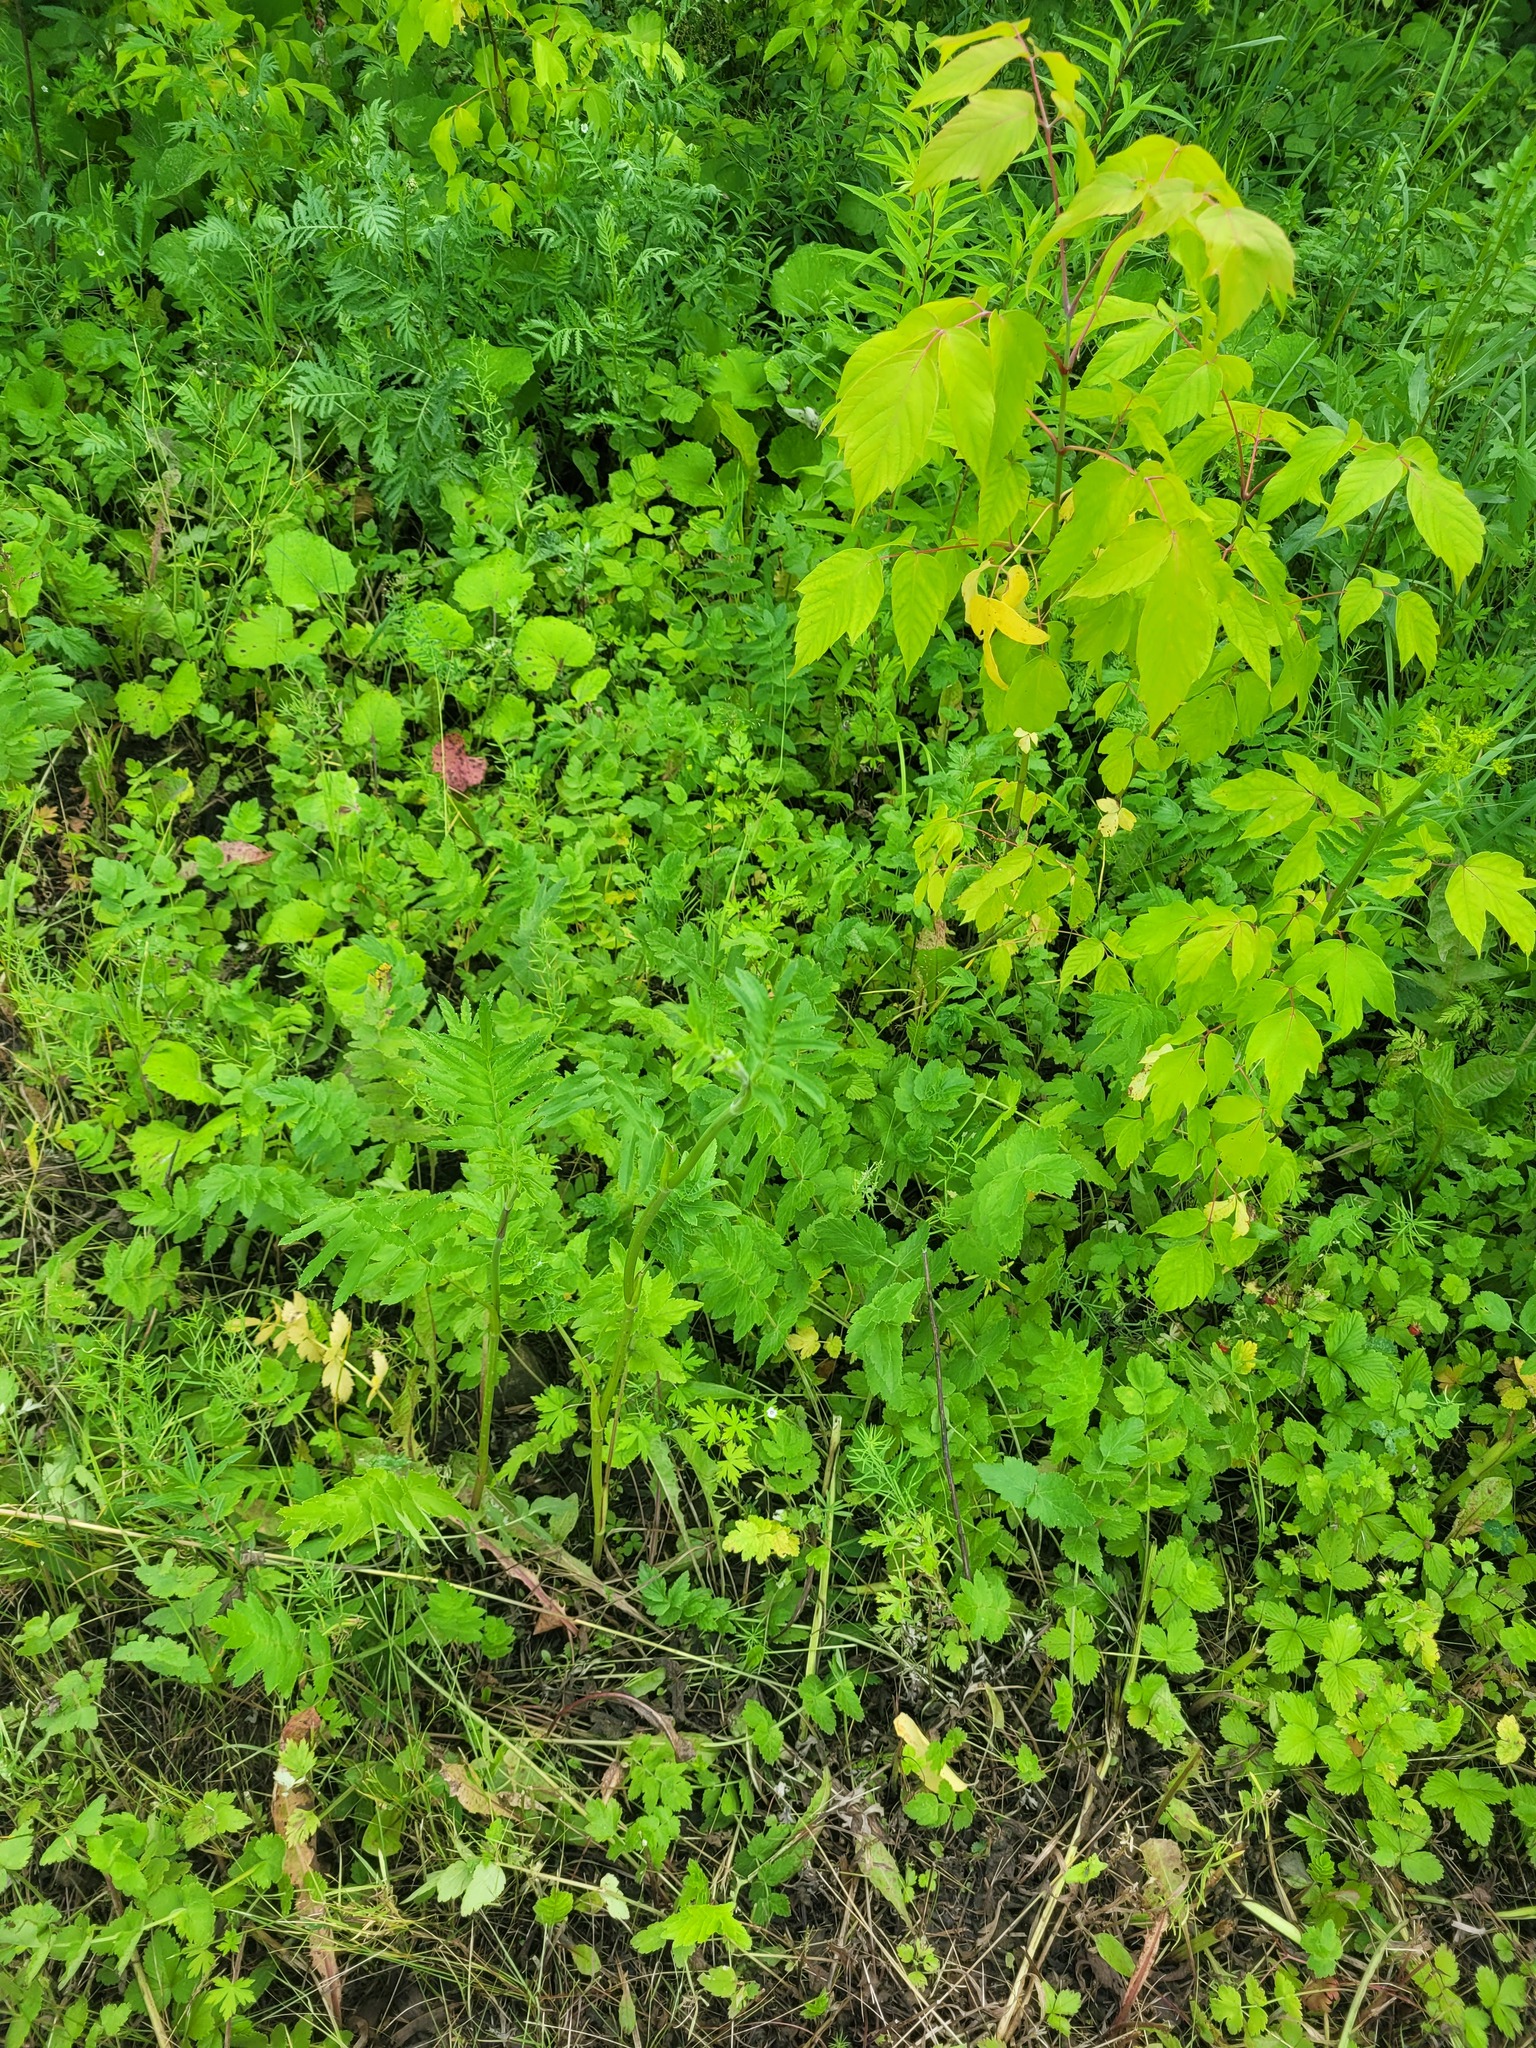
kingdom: Plantae
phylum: Tracheophyta
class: Magnoliopsida
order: Apiales
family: Apiaceae
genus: Pastinaca
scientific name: Pastinaca sativa
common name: Wild parsnip
